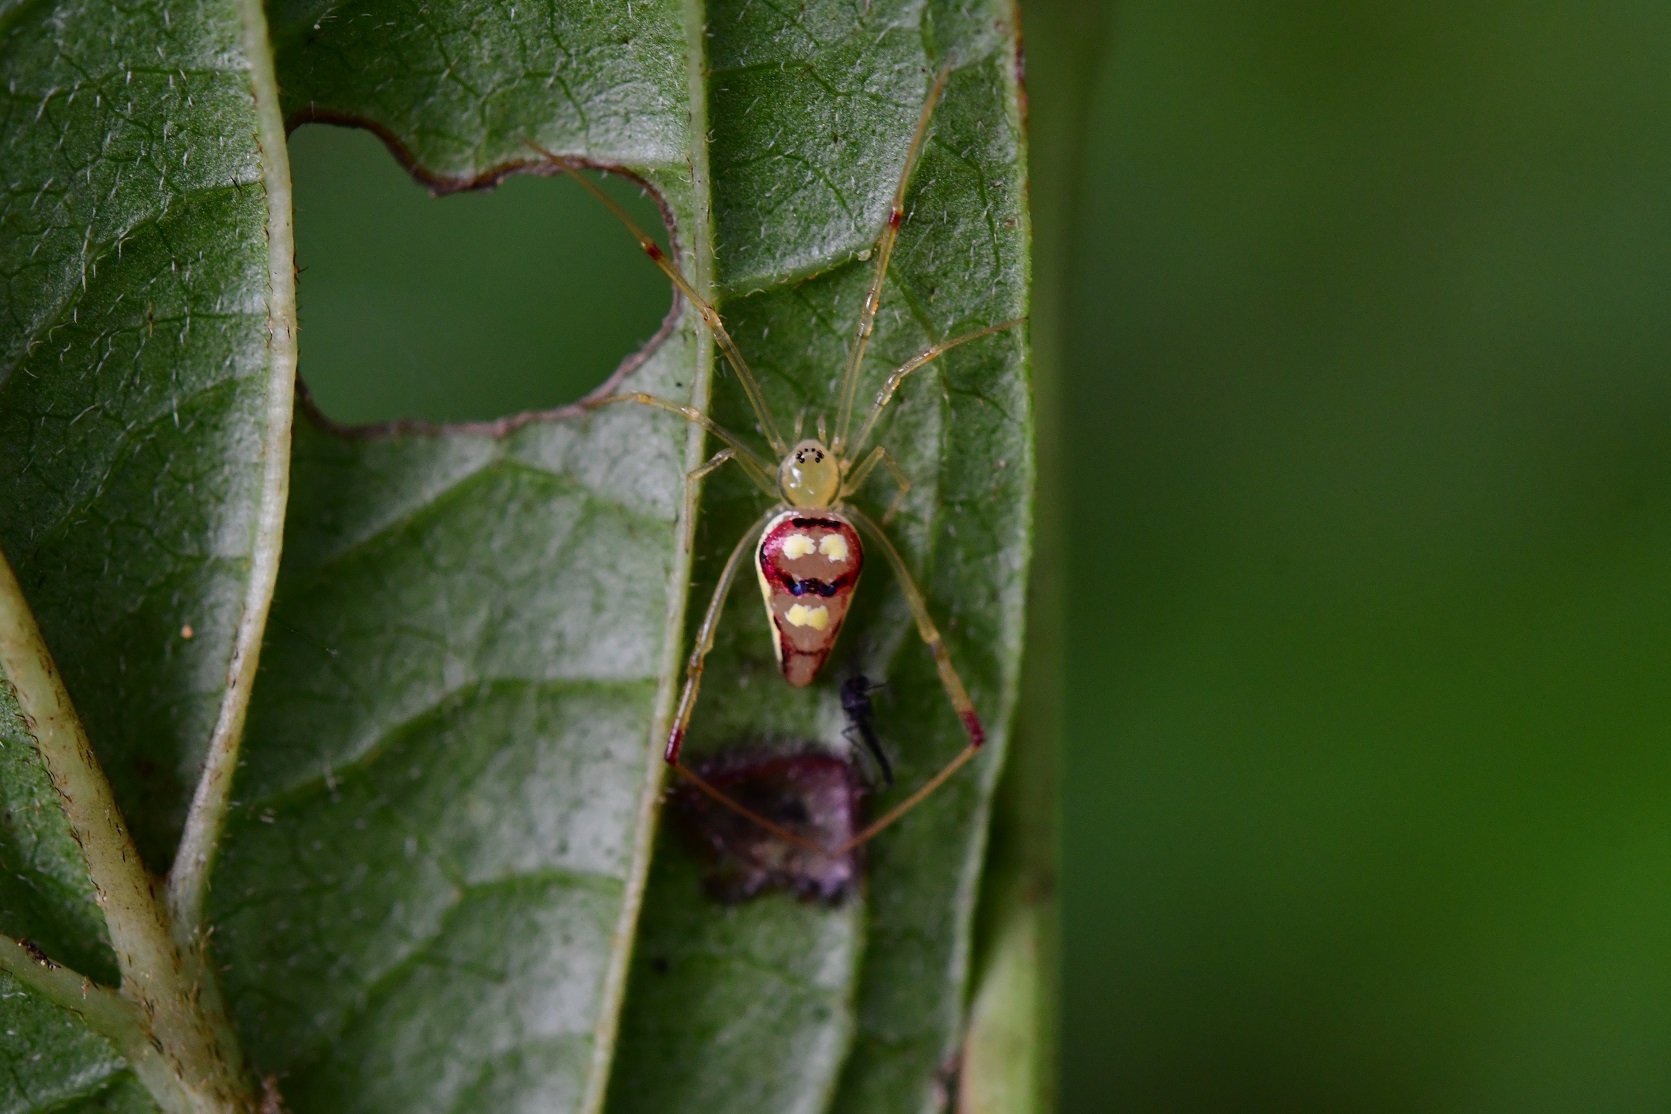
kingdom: Animalia
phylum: Arthropoda
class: Arachnida
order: Araneae
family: Theridiidae
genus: Spintharus
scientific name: Spintharus flavidus
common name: Cobweb spiders
